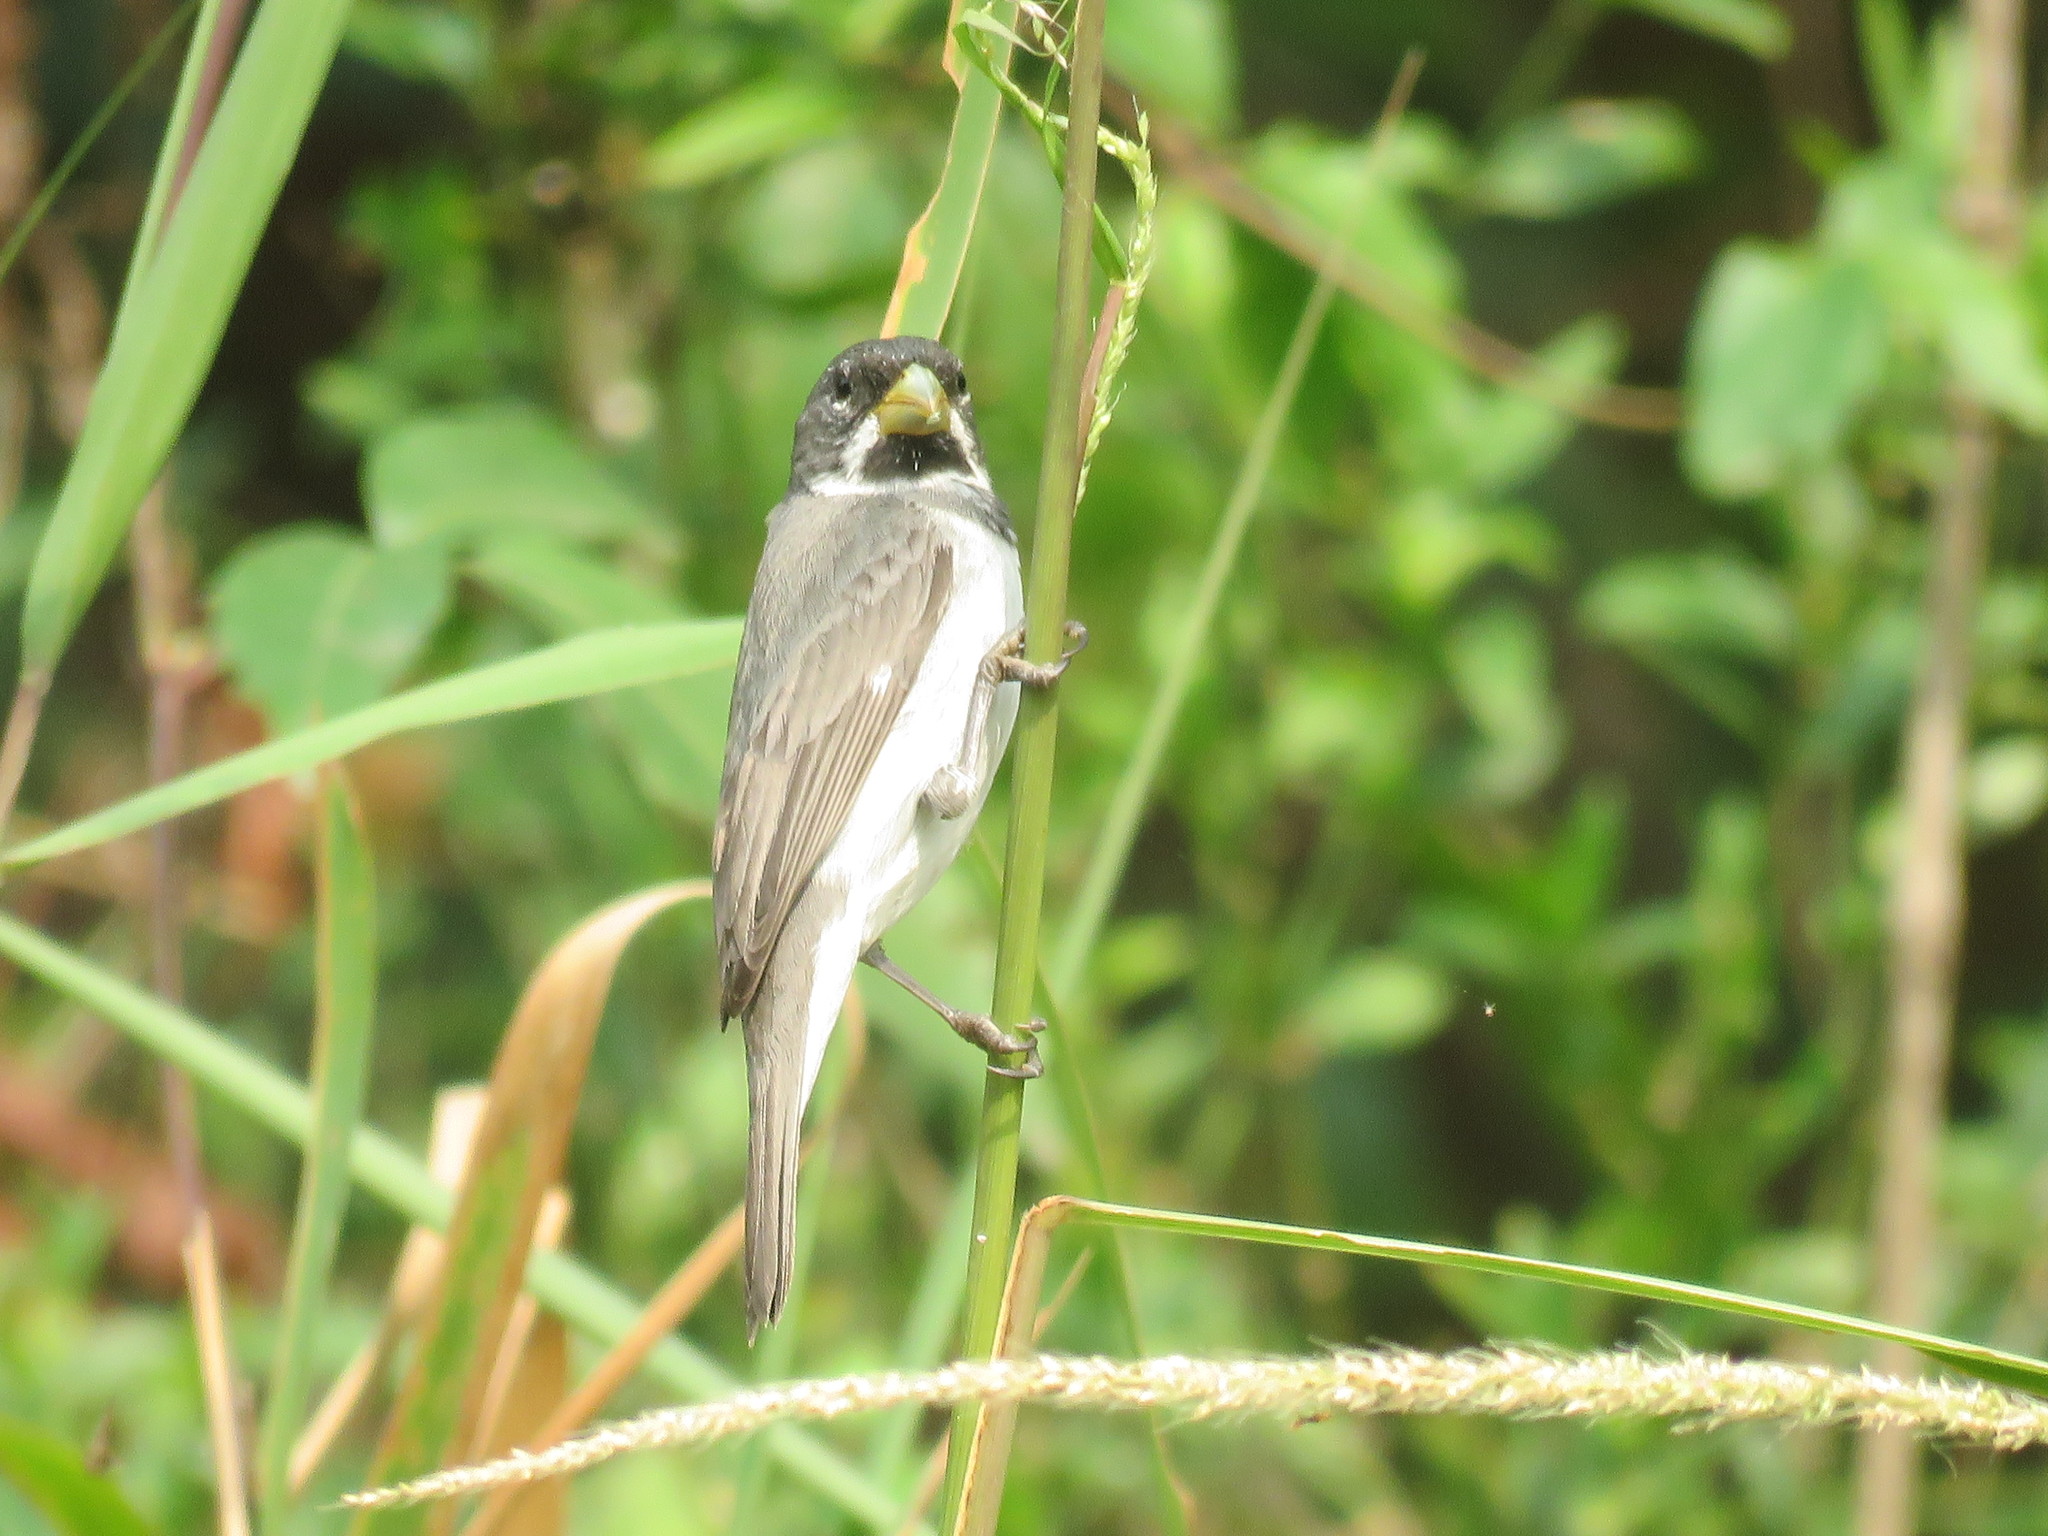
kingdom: Animalia
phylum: Chordata
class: Aves
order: Passeriformes
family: Thraupidae
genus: Sporophila
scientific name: Sporophila caerulescens
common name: Double-collared seedeater
